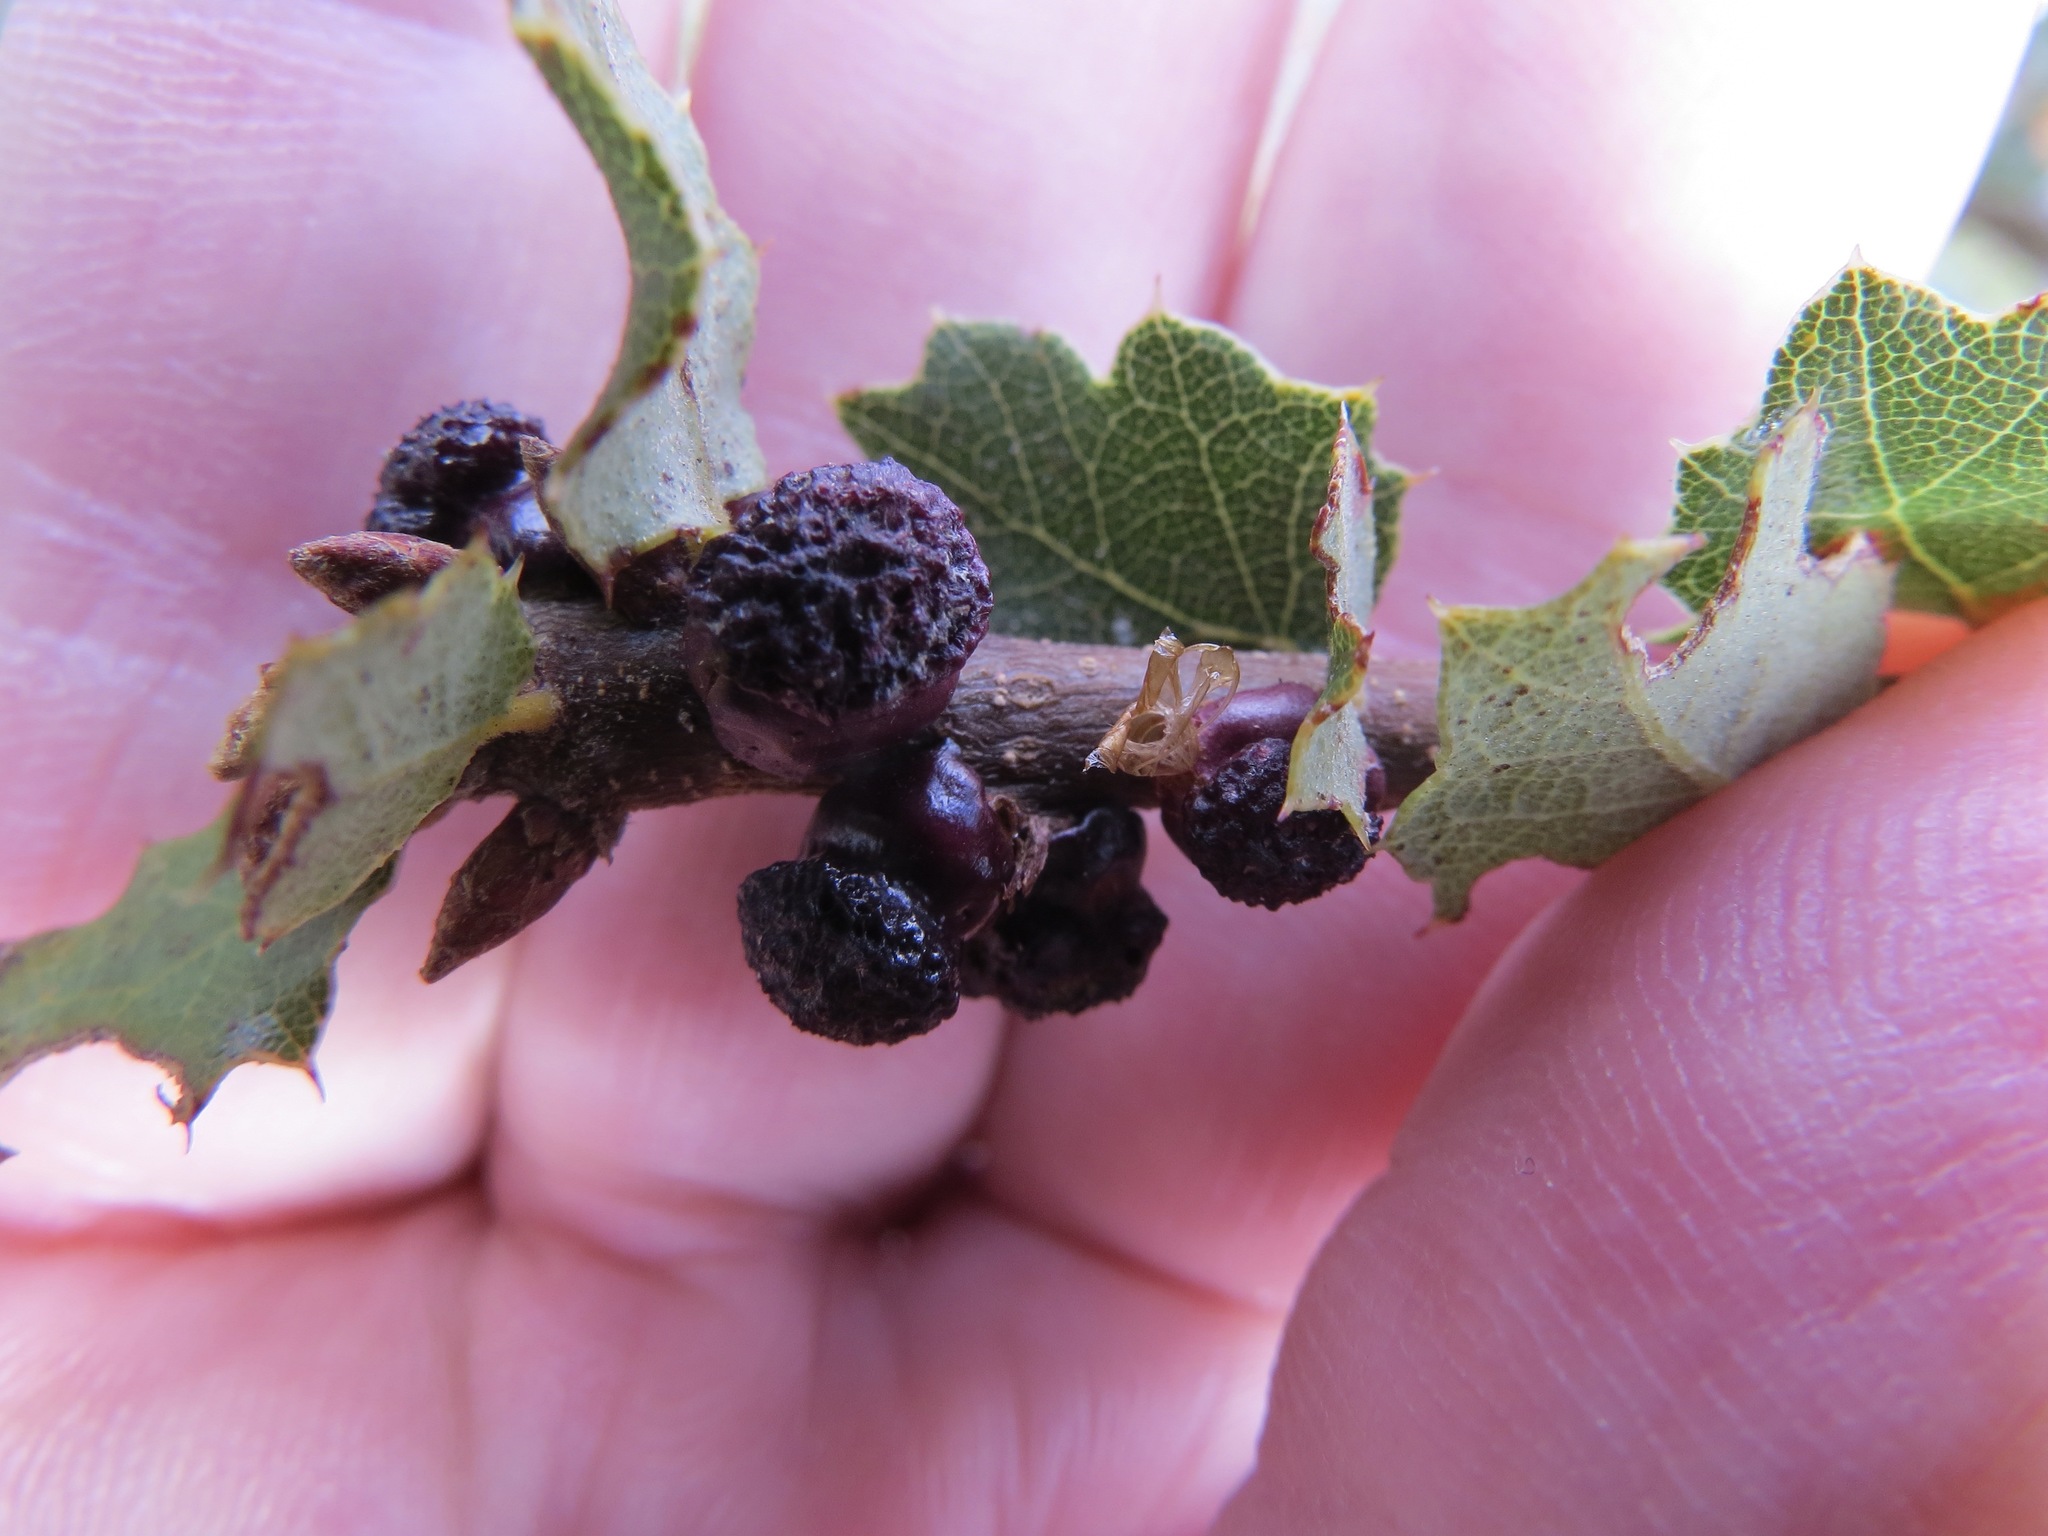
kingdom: Animalia
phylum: Arthropoda
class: Insecta
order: Hymenoptera
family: Cynipidae
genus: Disholcaspis
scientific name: Disholcaspis prehensa
